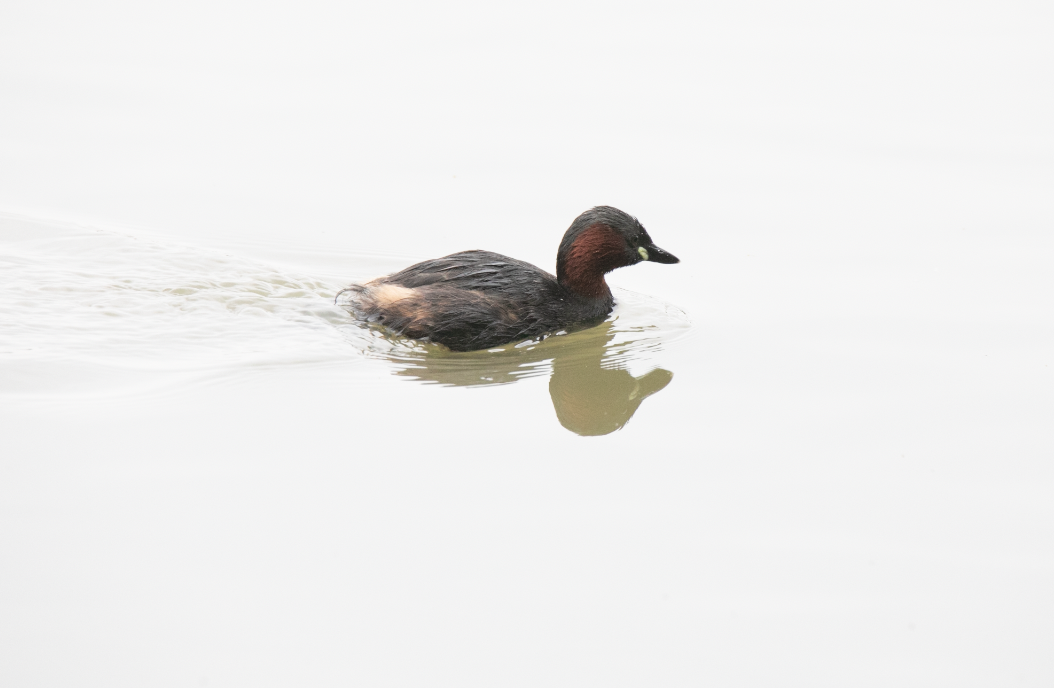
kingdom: Animalia
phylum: Chordata
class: Aves
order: Podicipediformes
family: Podicipedidae
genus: Tachybaptus
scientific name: Tachybaptus ruficollis
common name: Little grebe
